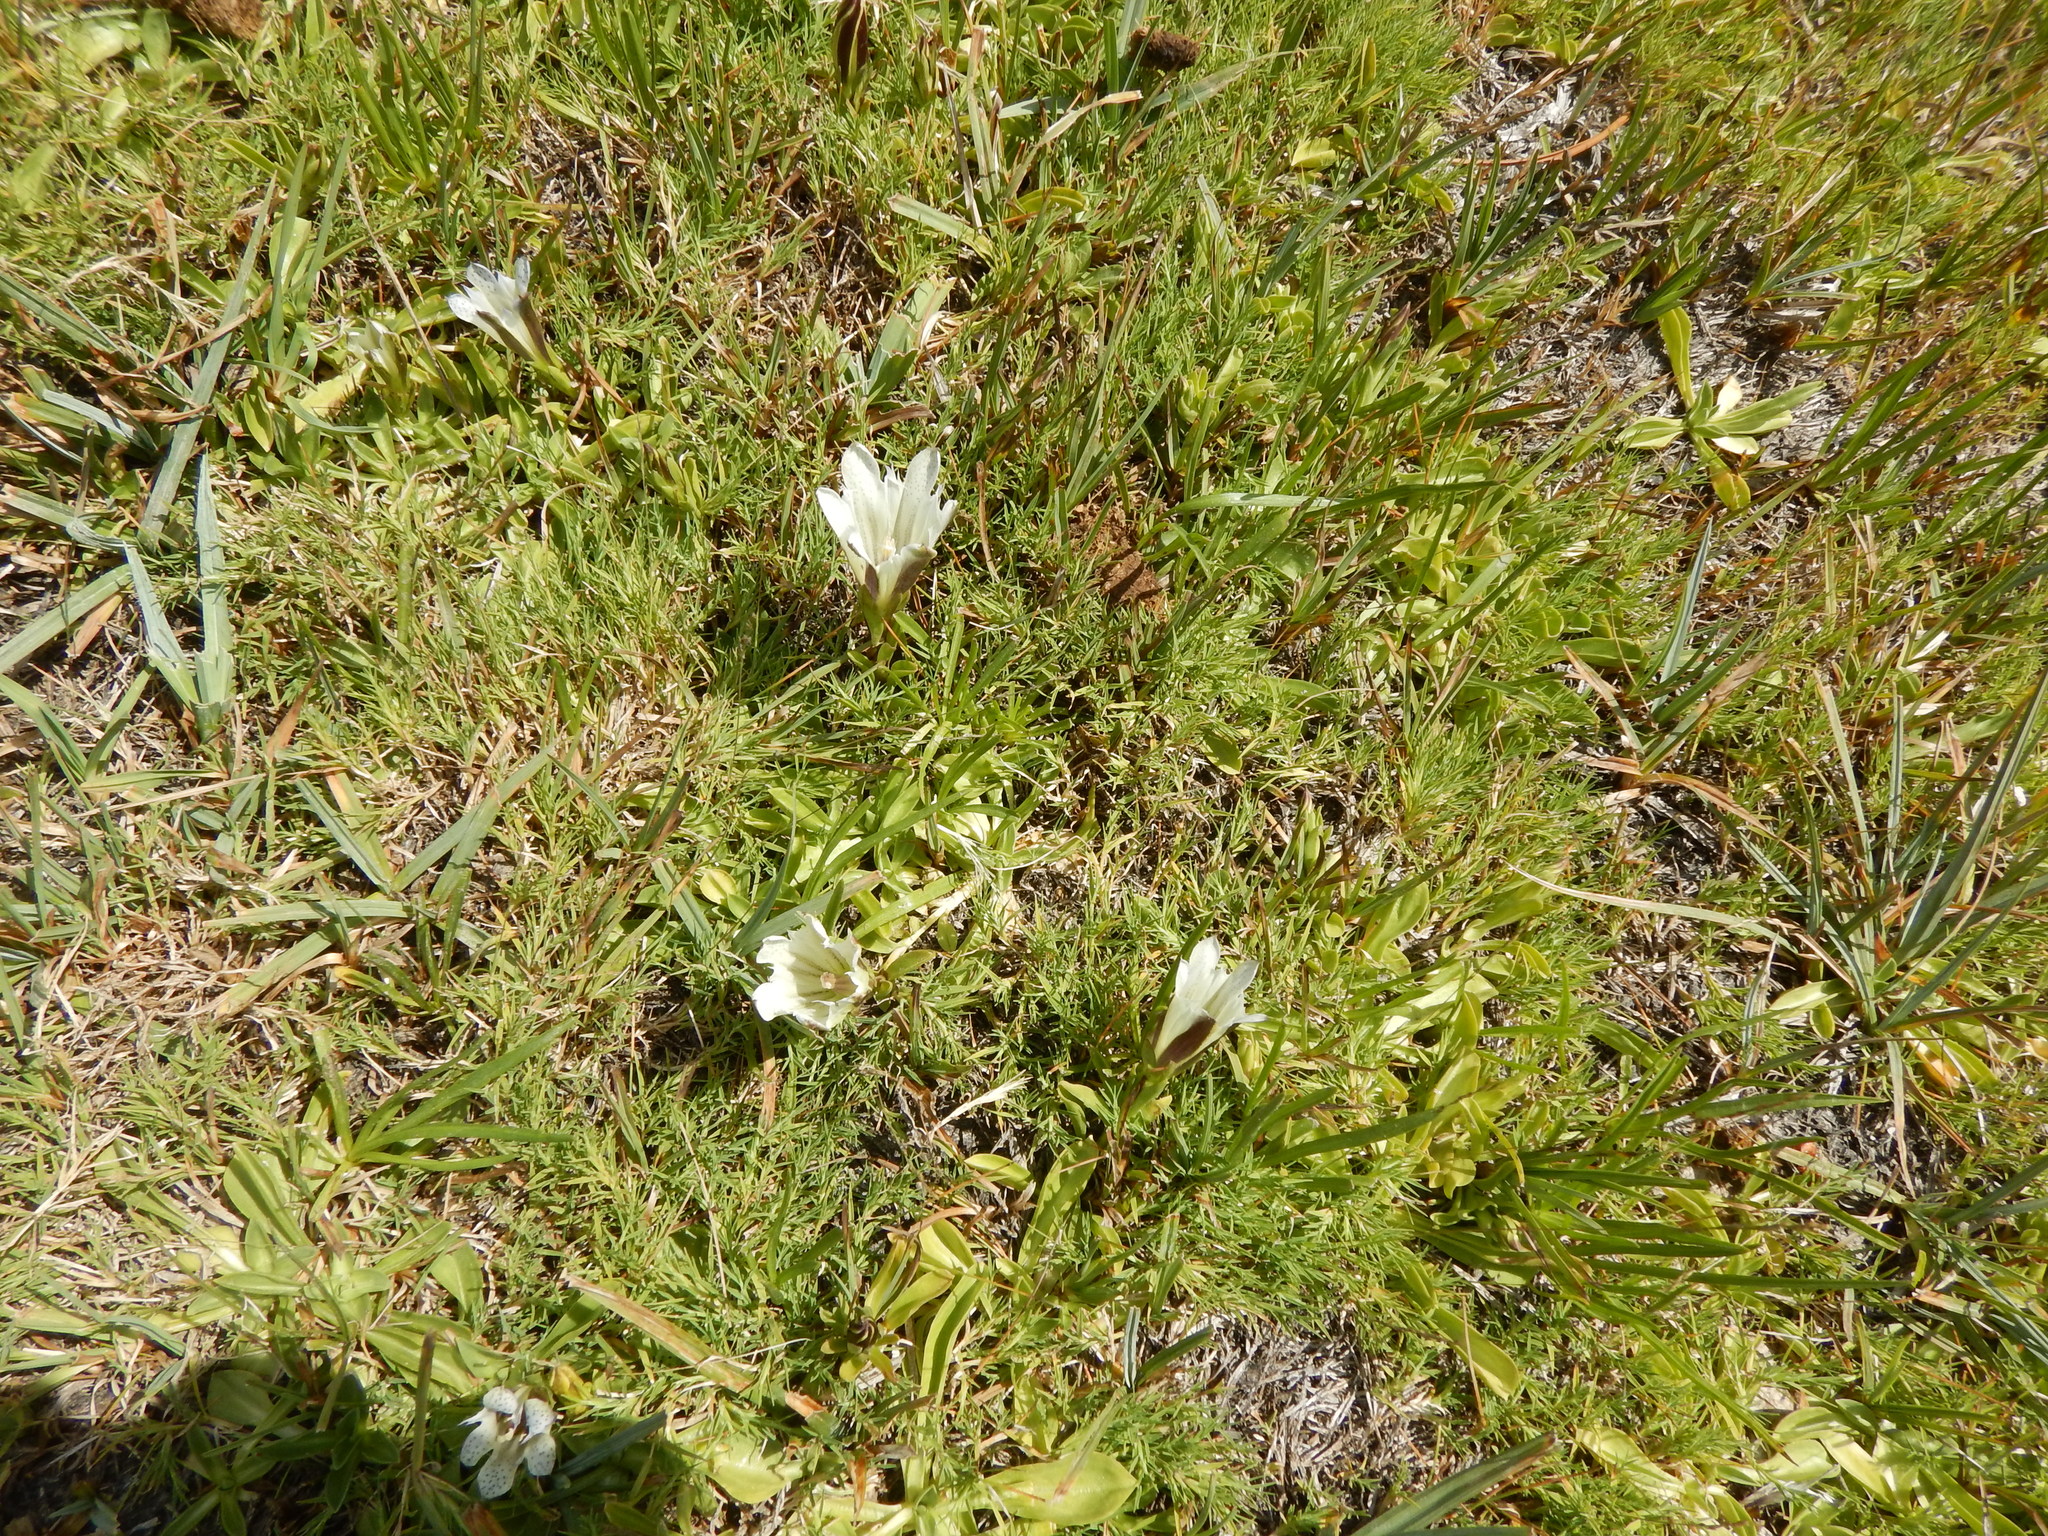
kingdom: Plantae
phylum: Tracheophyta
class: Magnoliopsida
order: Gentianales
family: Gentianaceae
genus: Gentiana
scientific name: Gentiana newberryi
